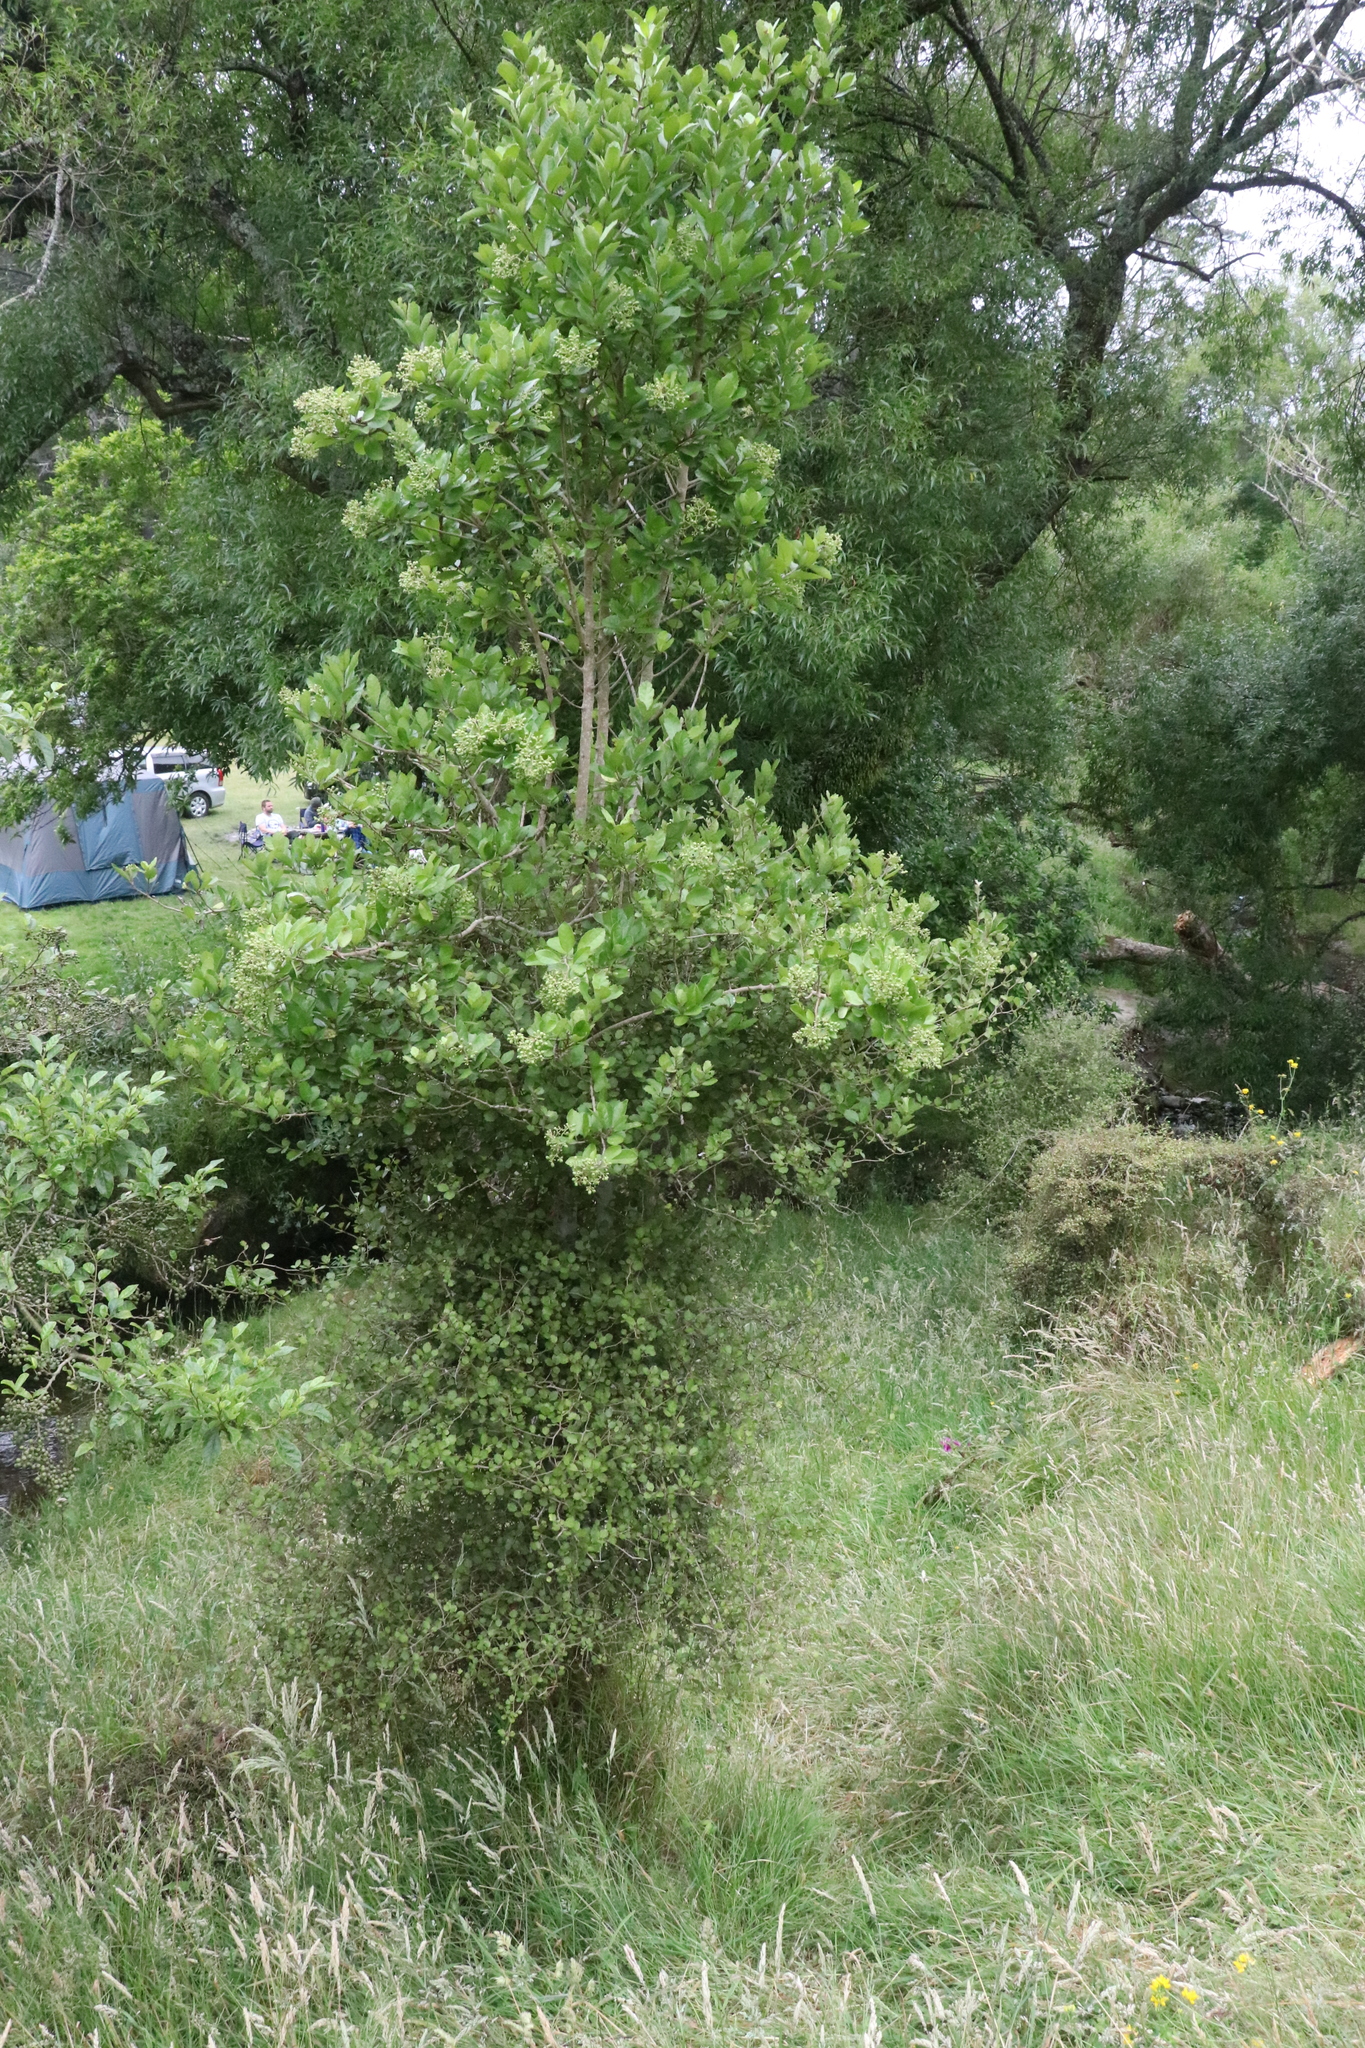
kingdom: Plantae
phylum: Tracheophyta
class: Magnoliopsida
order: Apiales
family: Pennantiaceae
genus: Pennantia
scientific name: Pennantia corymbosa
